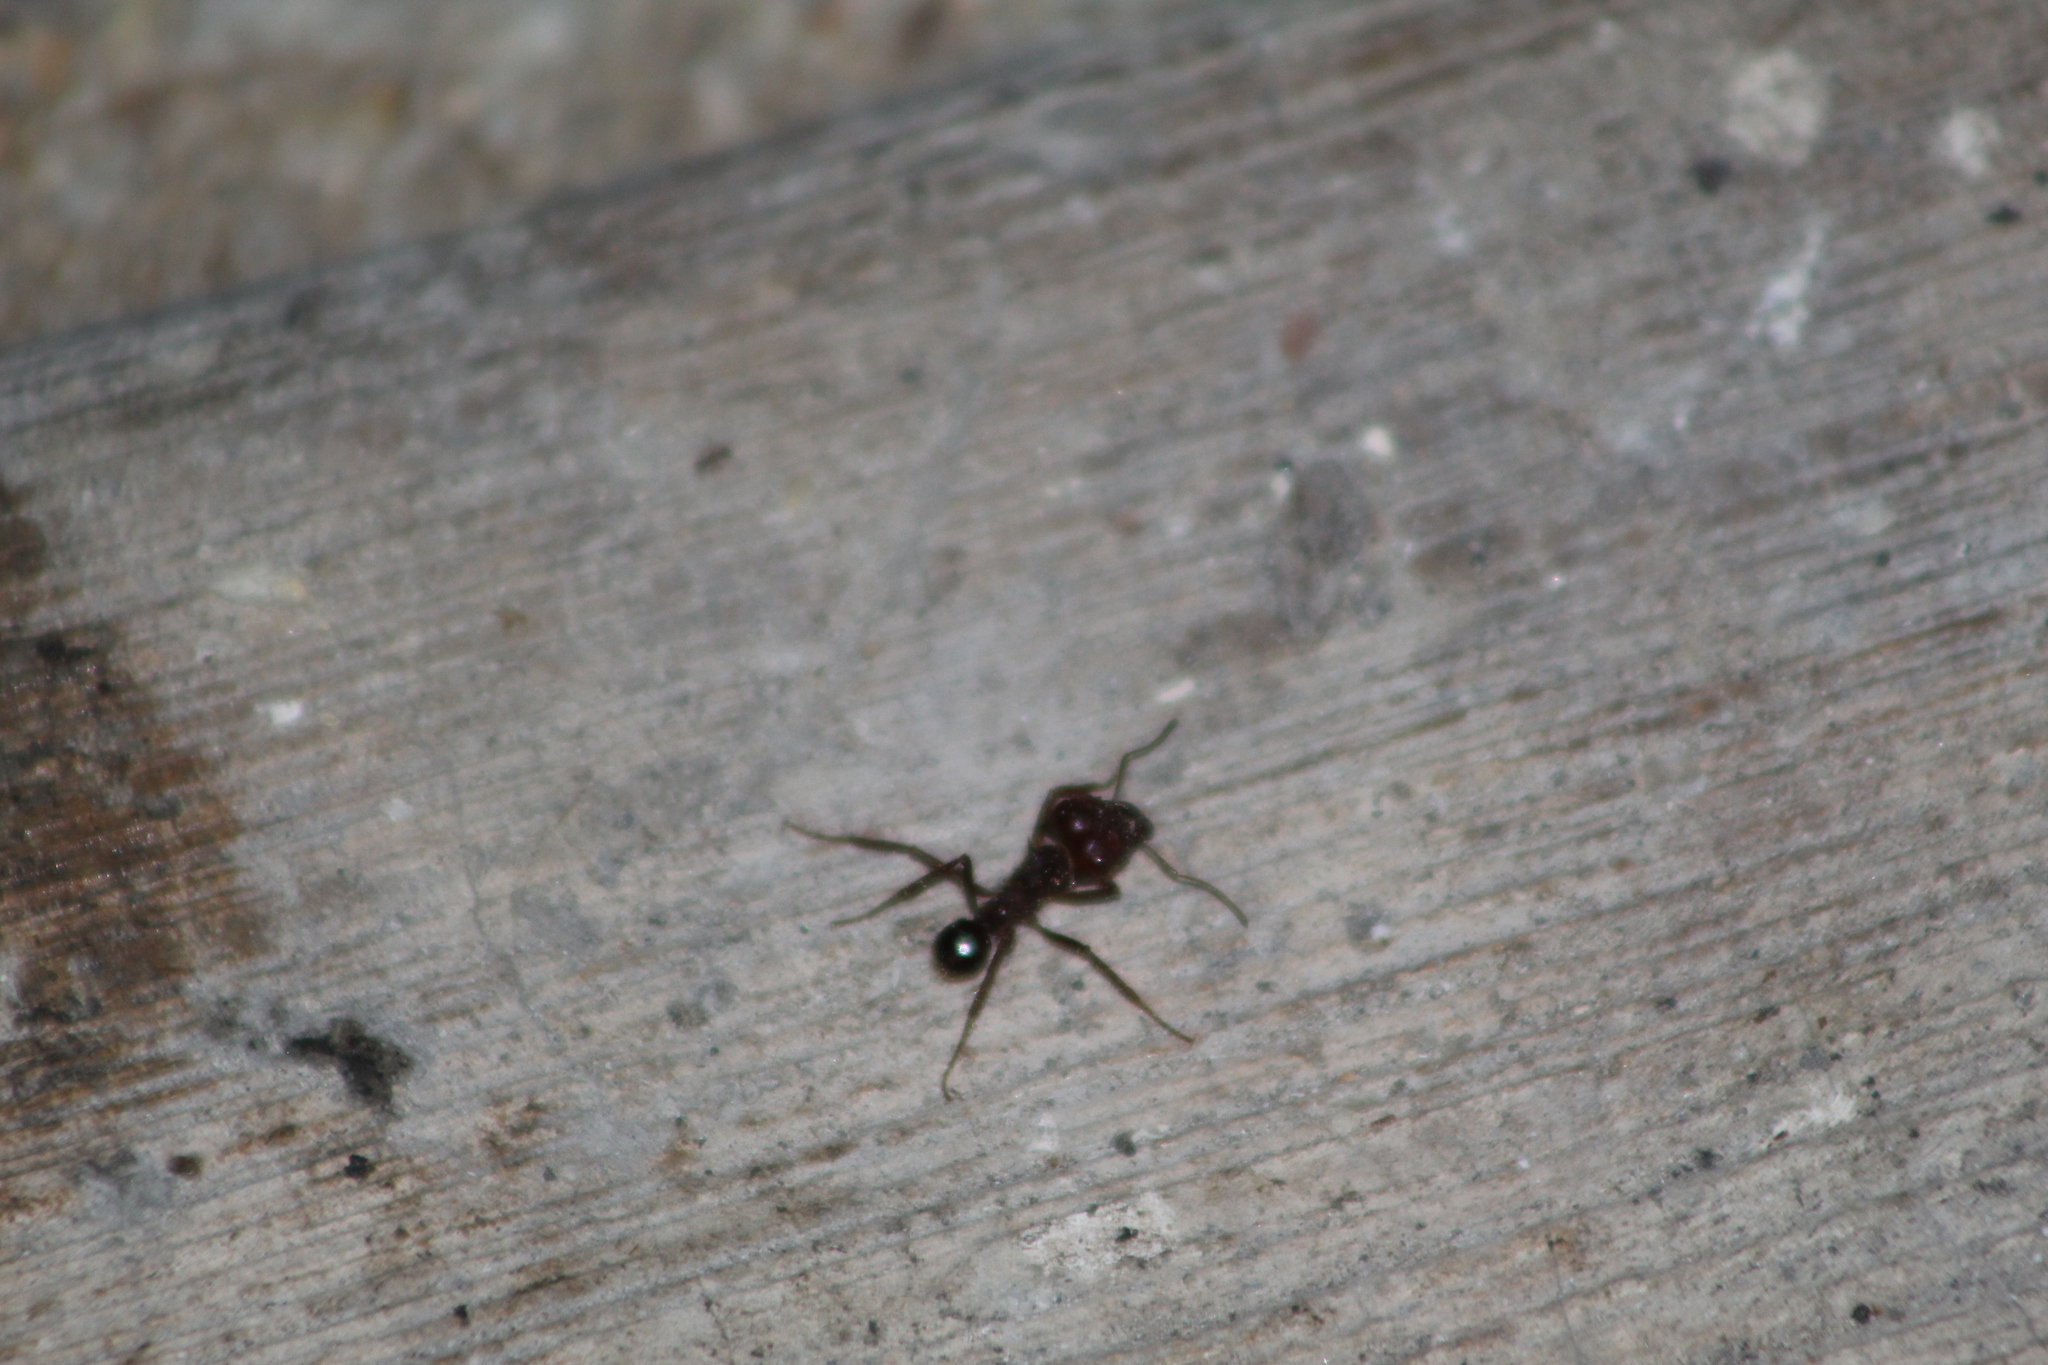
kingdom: Animalia
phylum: Arthropoda
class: Insecta
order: Hymenoptera
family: Formicidae
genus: Atta
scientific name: Atta mexicana
